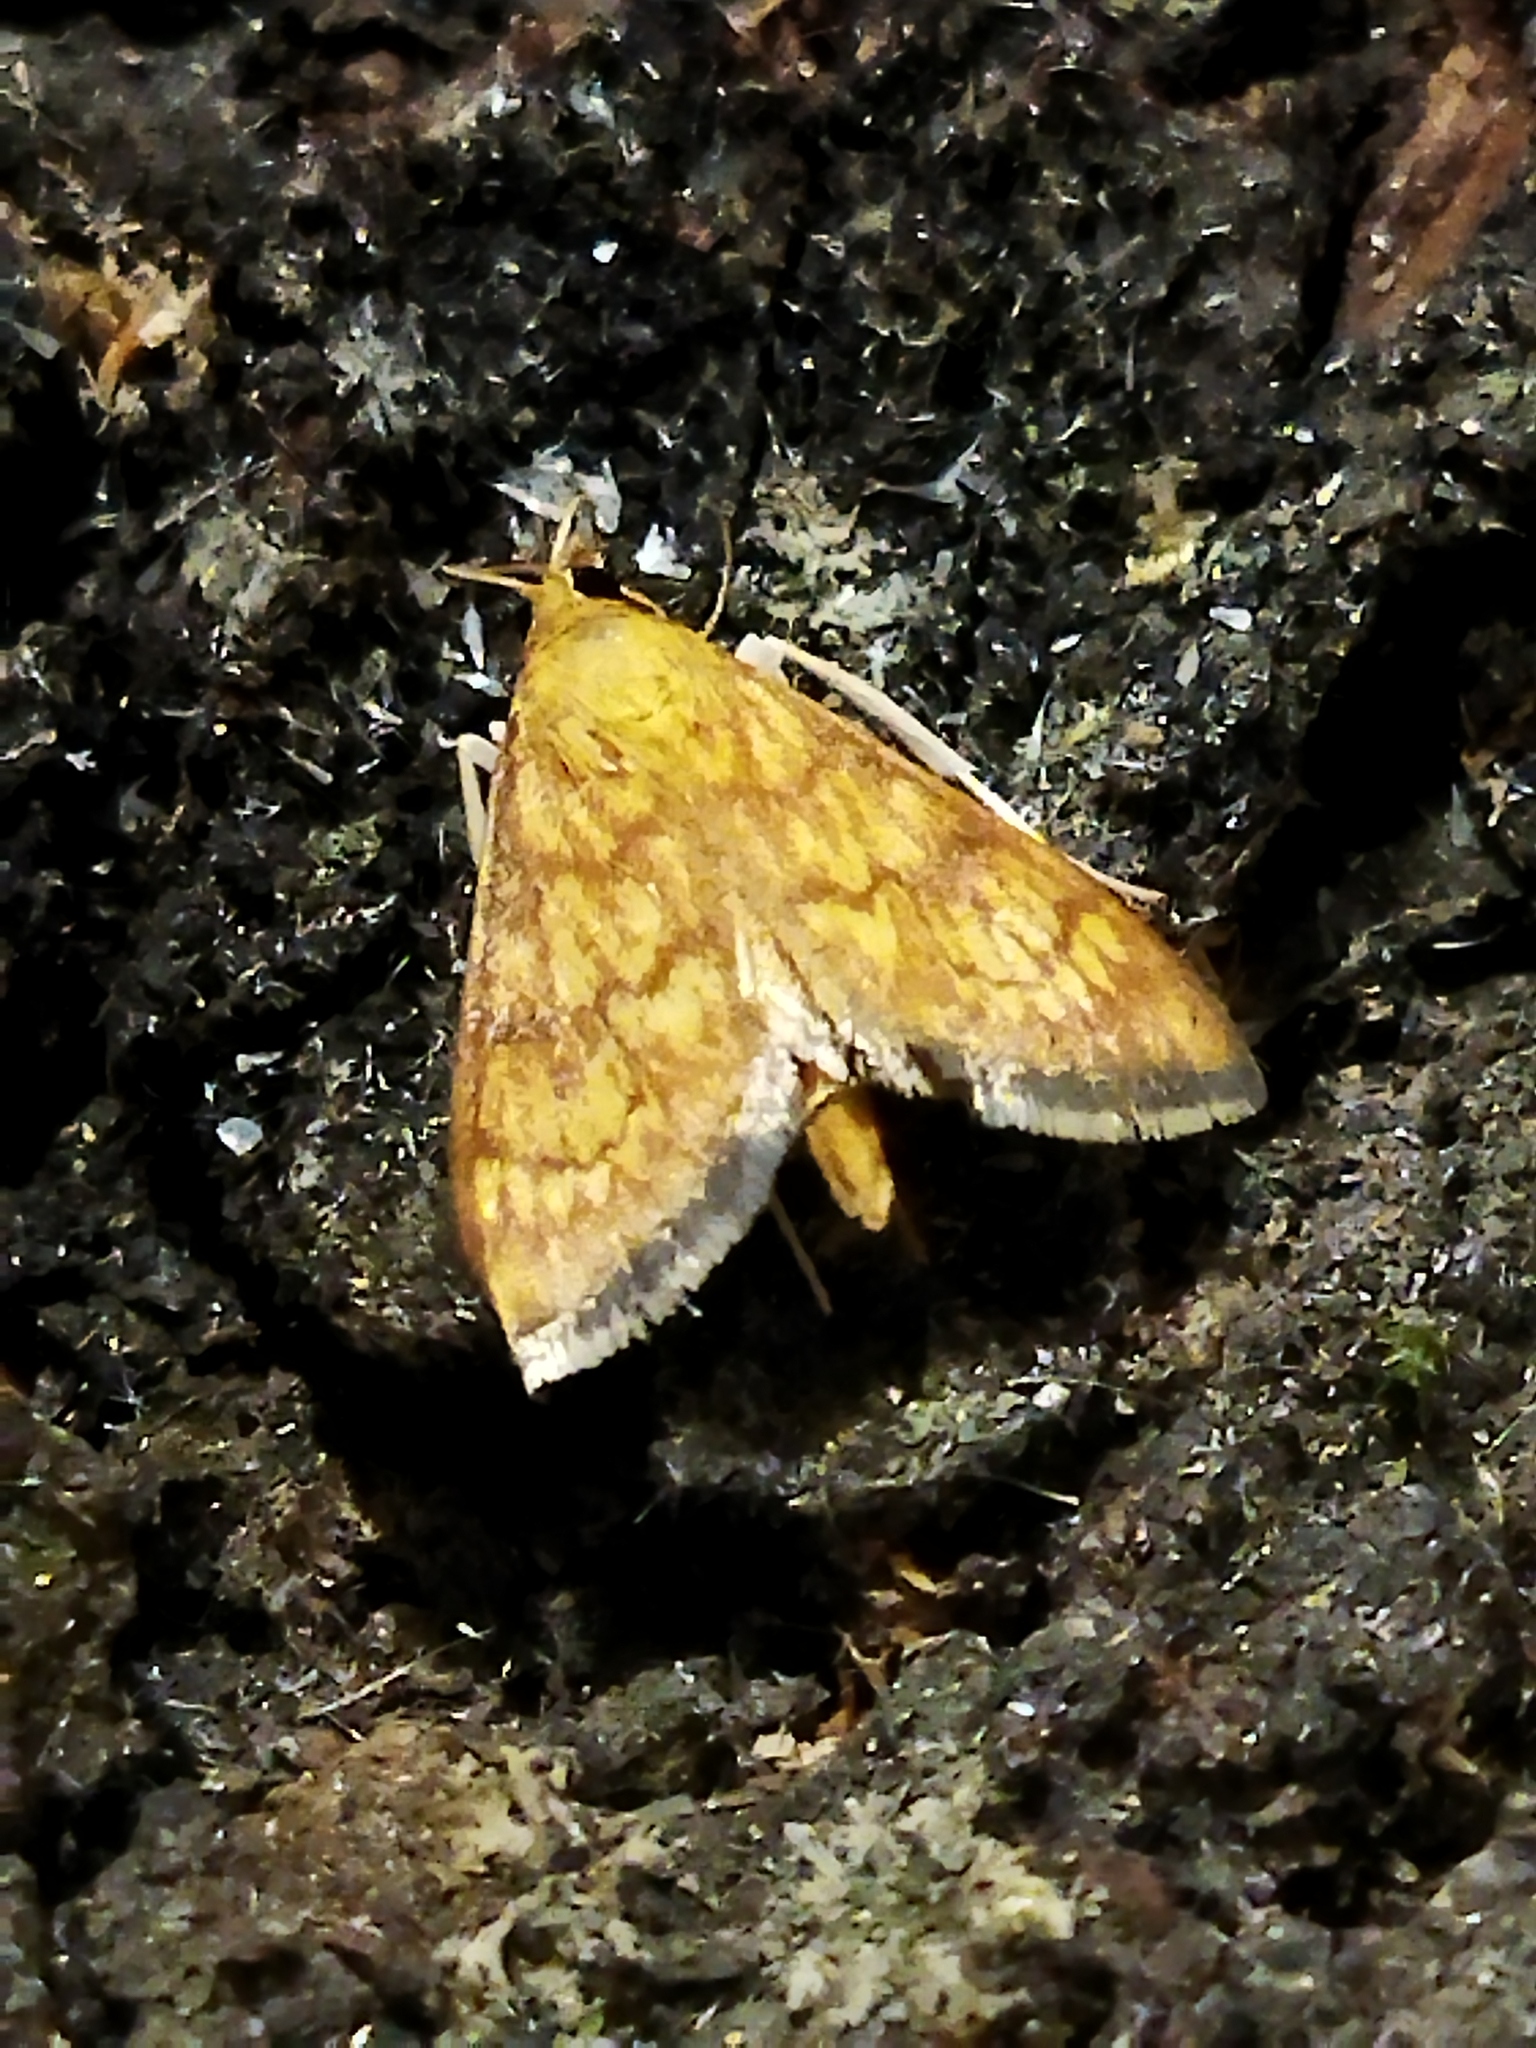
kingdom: Animalia
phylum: Arthropoda
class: Insecta
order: Lepidoptera
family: Crambidae
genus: Ecpyrrhorrhoe
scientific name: Ecpyrrhorrhoe rubiginalis
